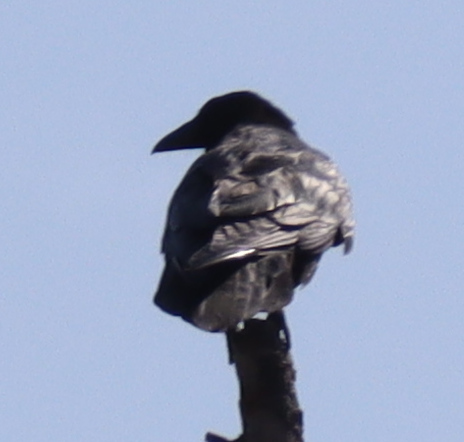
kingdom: Animalia
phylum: Chordata
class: Aves
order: Passeriformes
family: Corvidae
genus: Corvus
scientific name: Corvus corax
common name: Common raven
